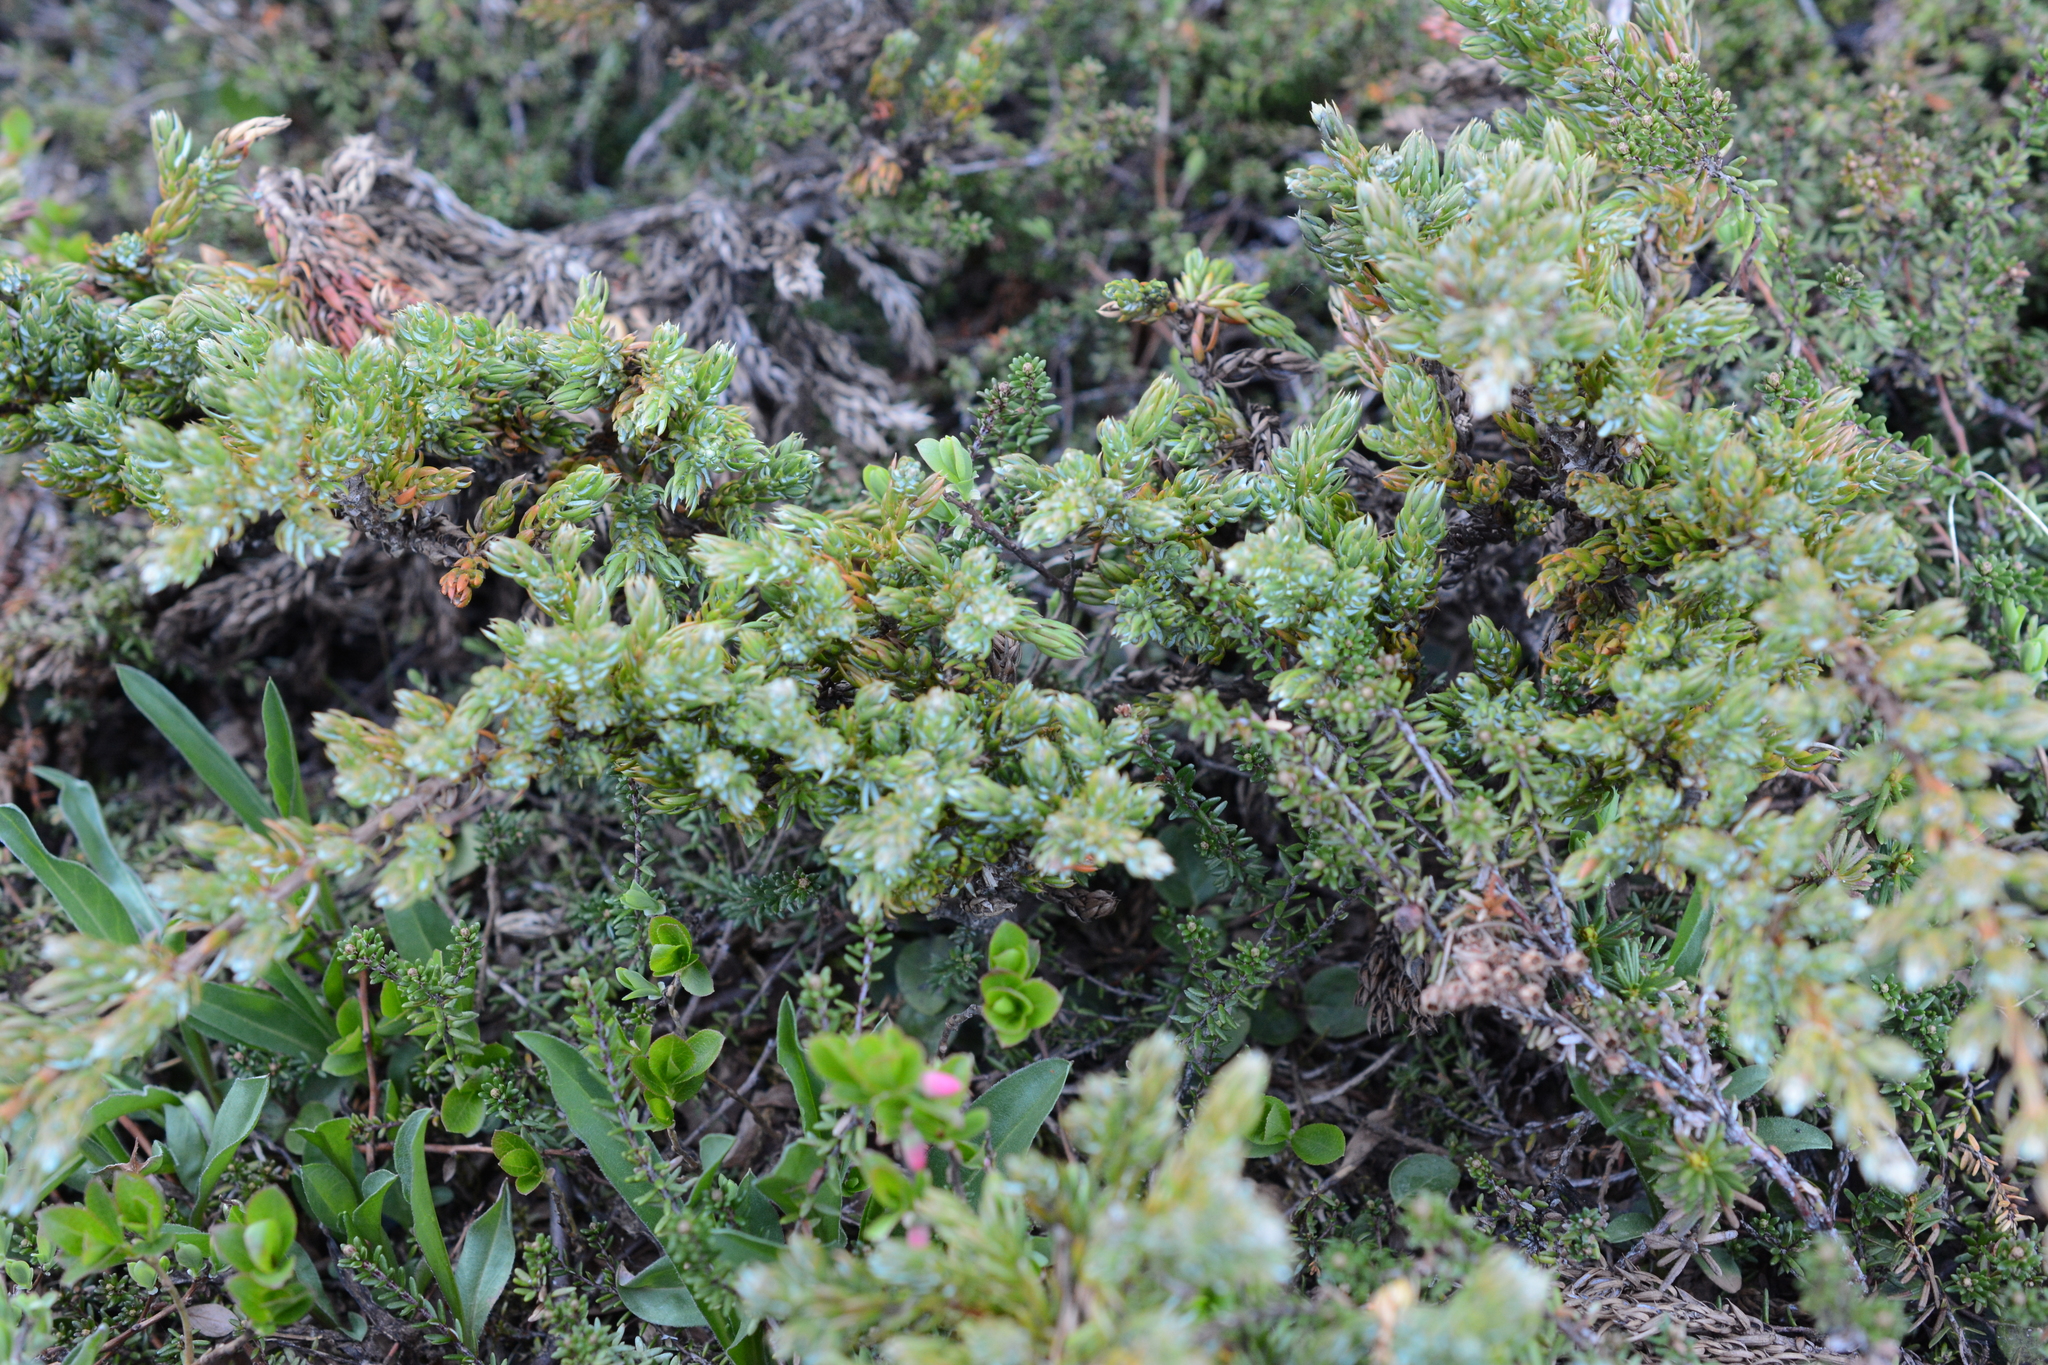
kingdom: Plantae
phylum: Tracheophyta
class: Pinopsida
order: Pinales
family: Cupressaceae
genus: Juniperus
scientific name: Juniperus communis
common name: Common juniper
